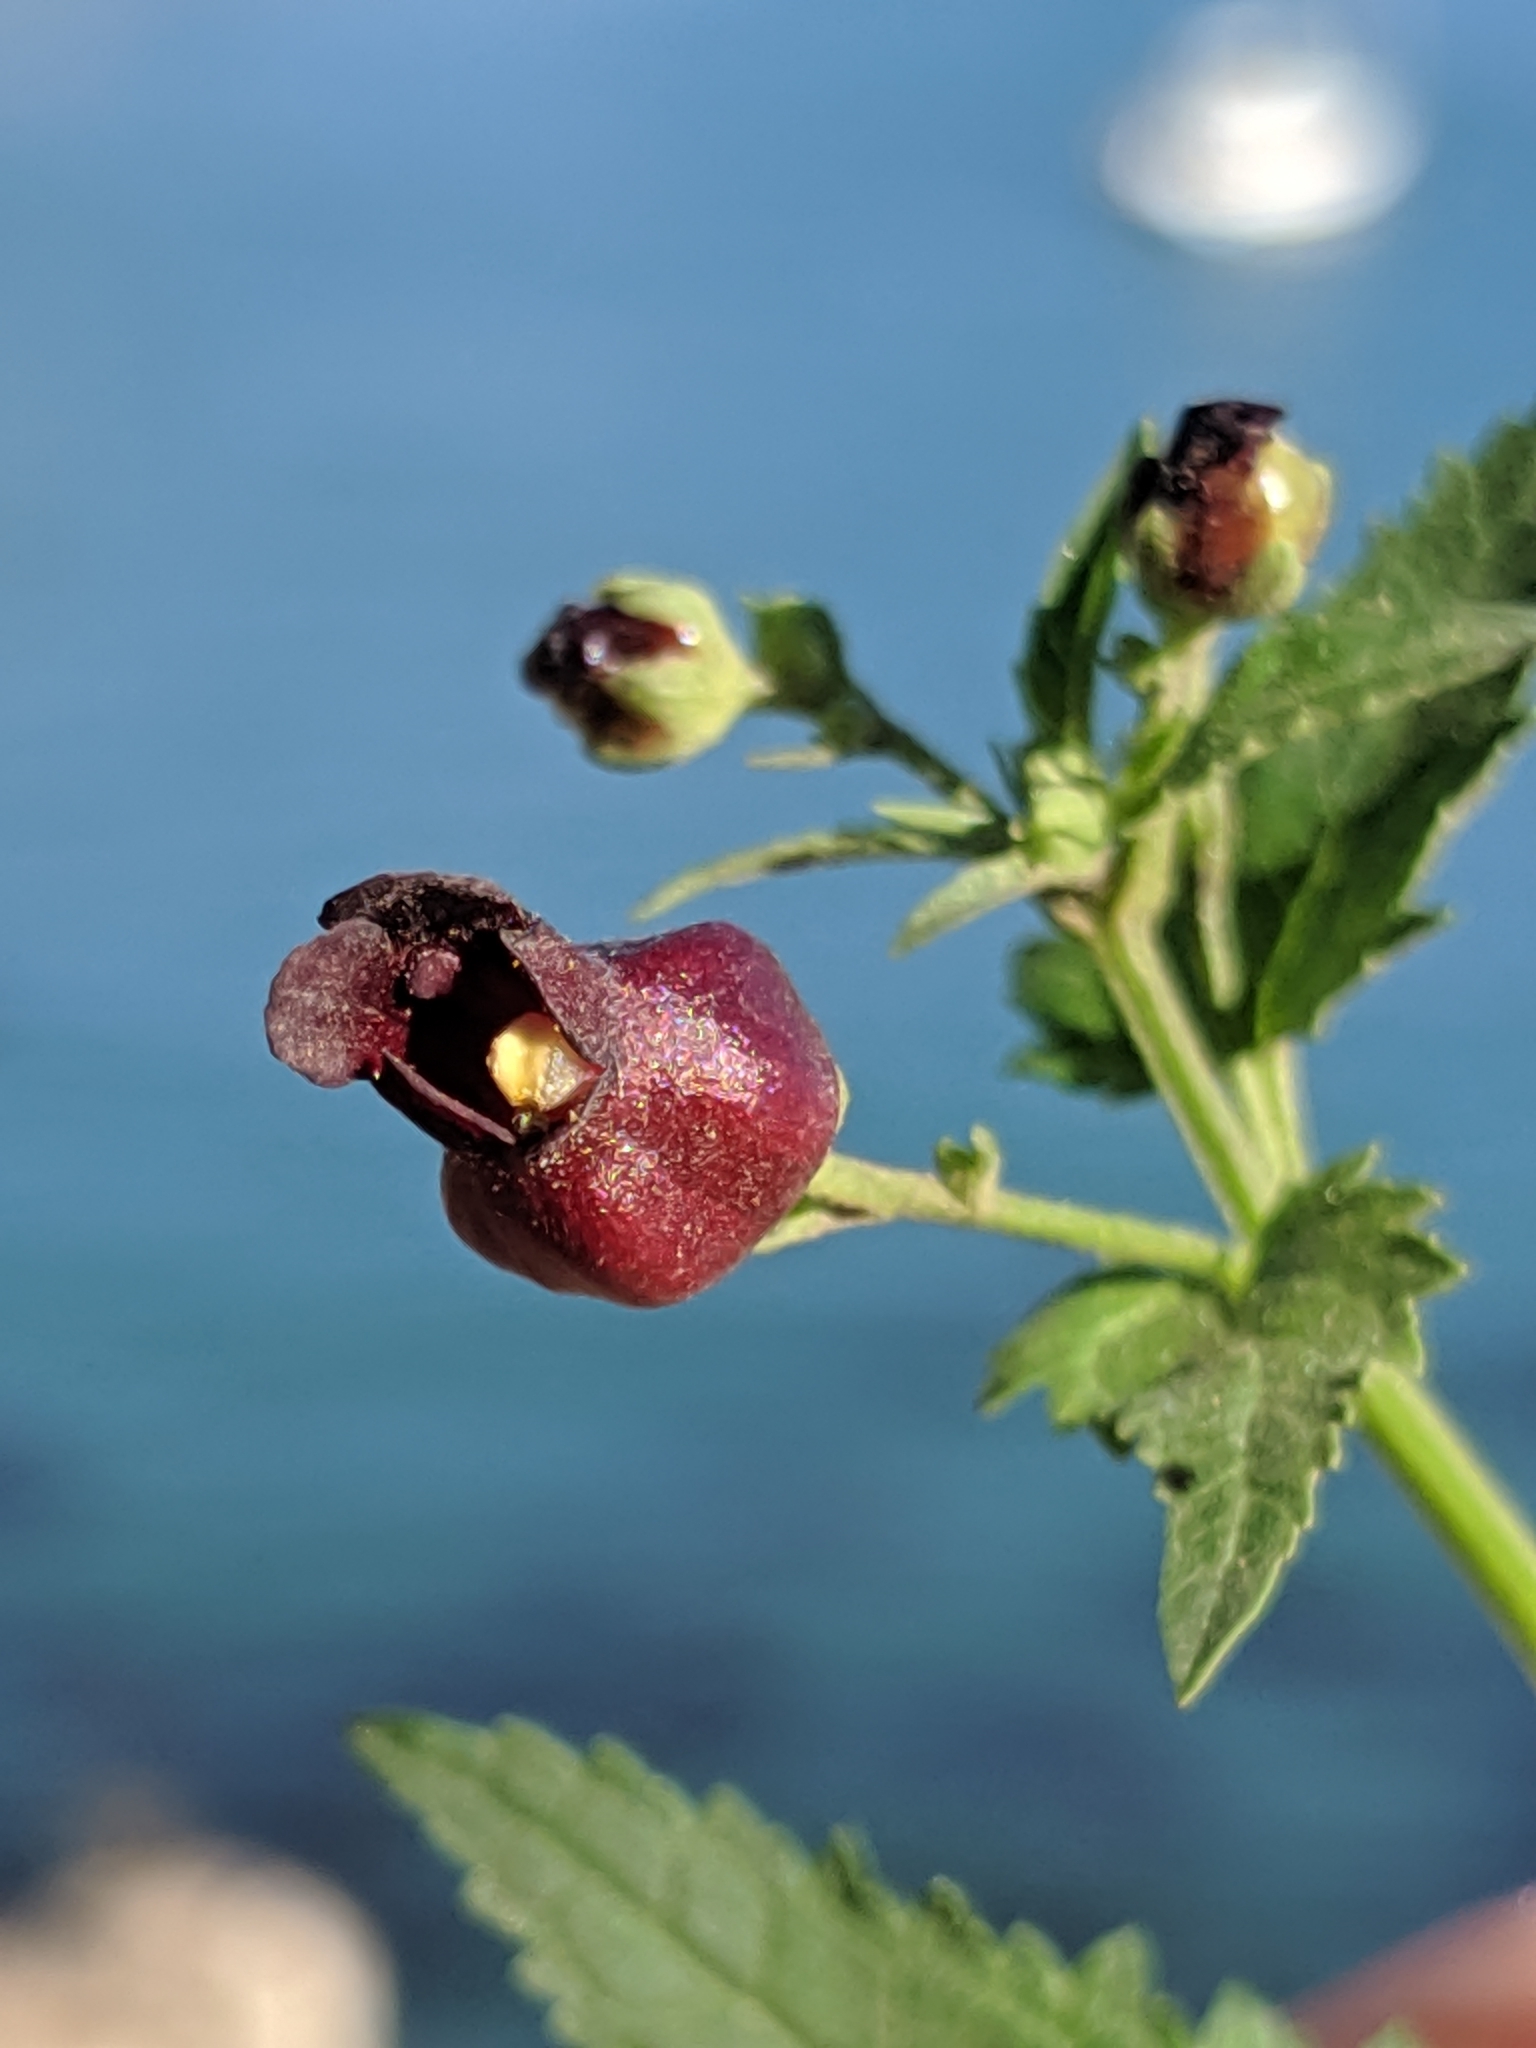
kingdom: Plantae
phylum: Tracheophyta
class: Magnoliopsida
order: Lamiales
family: Scrophulariaceae
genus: Scrophularia
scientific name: Scrophularia atrata
